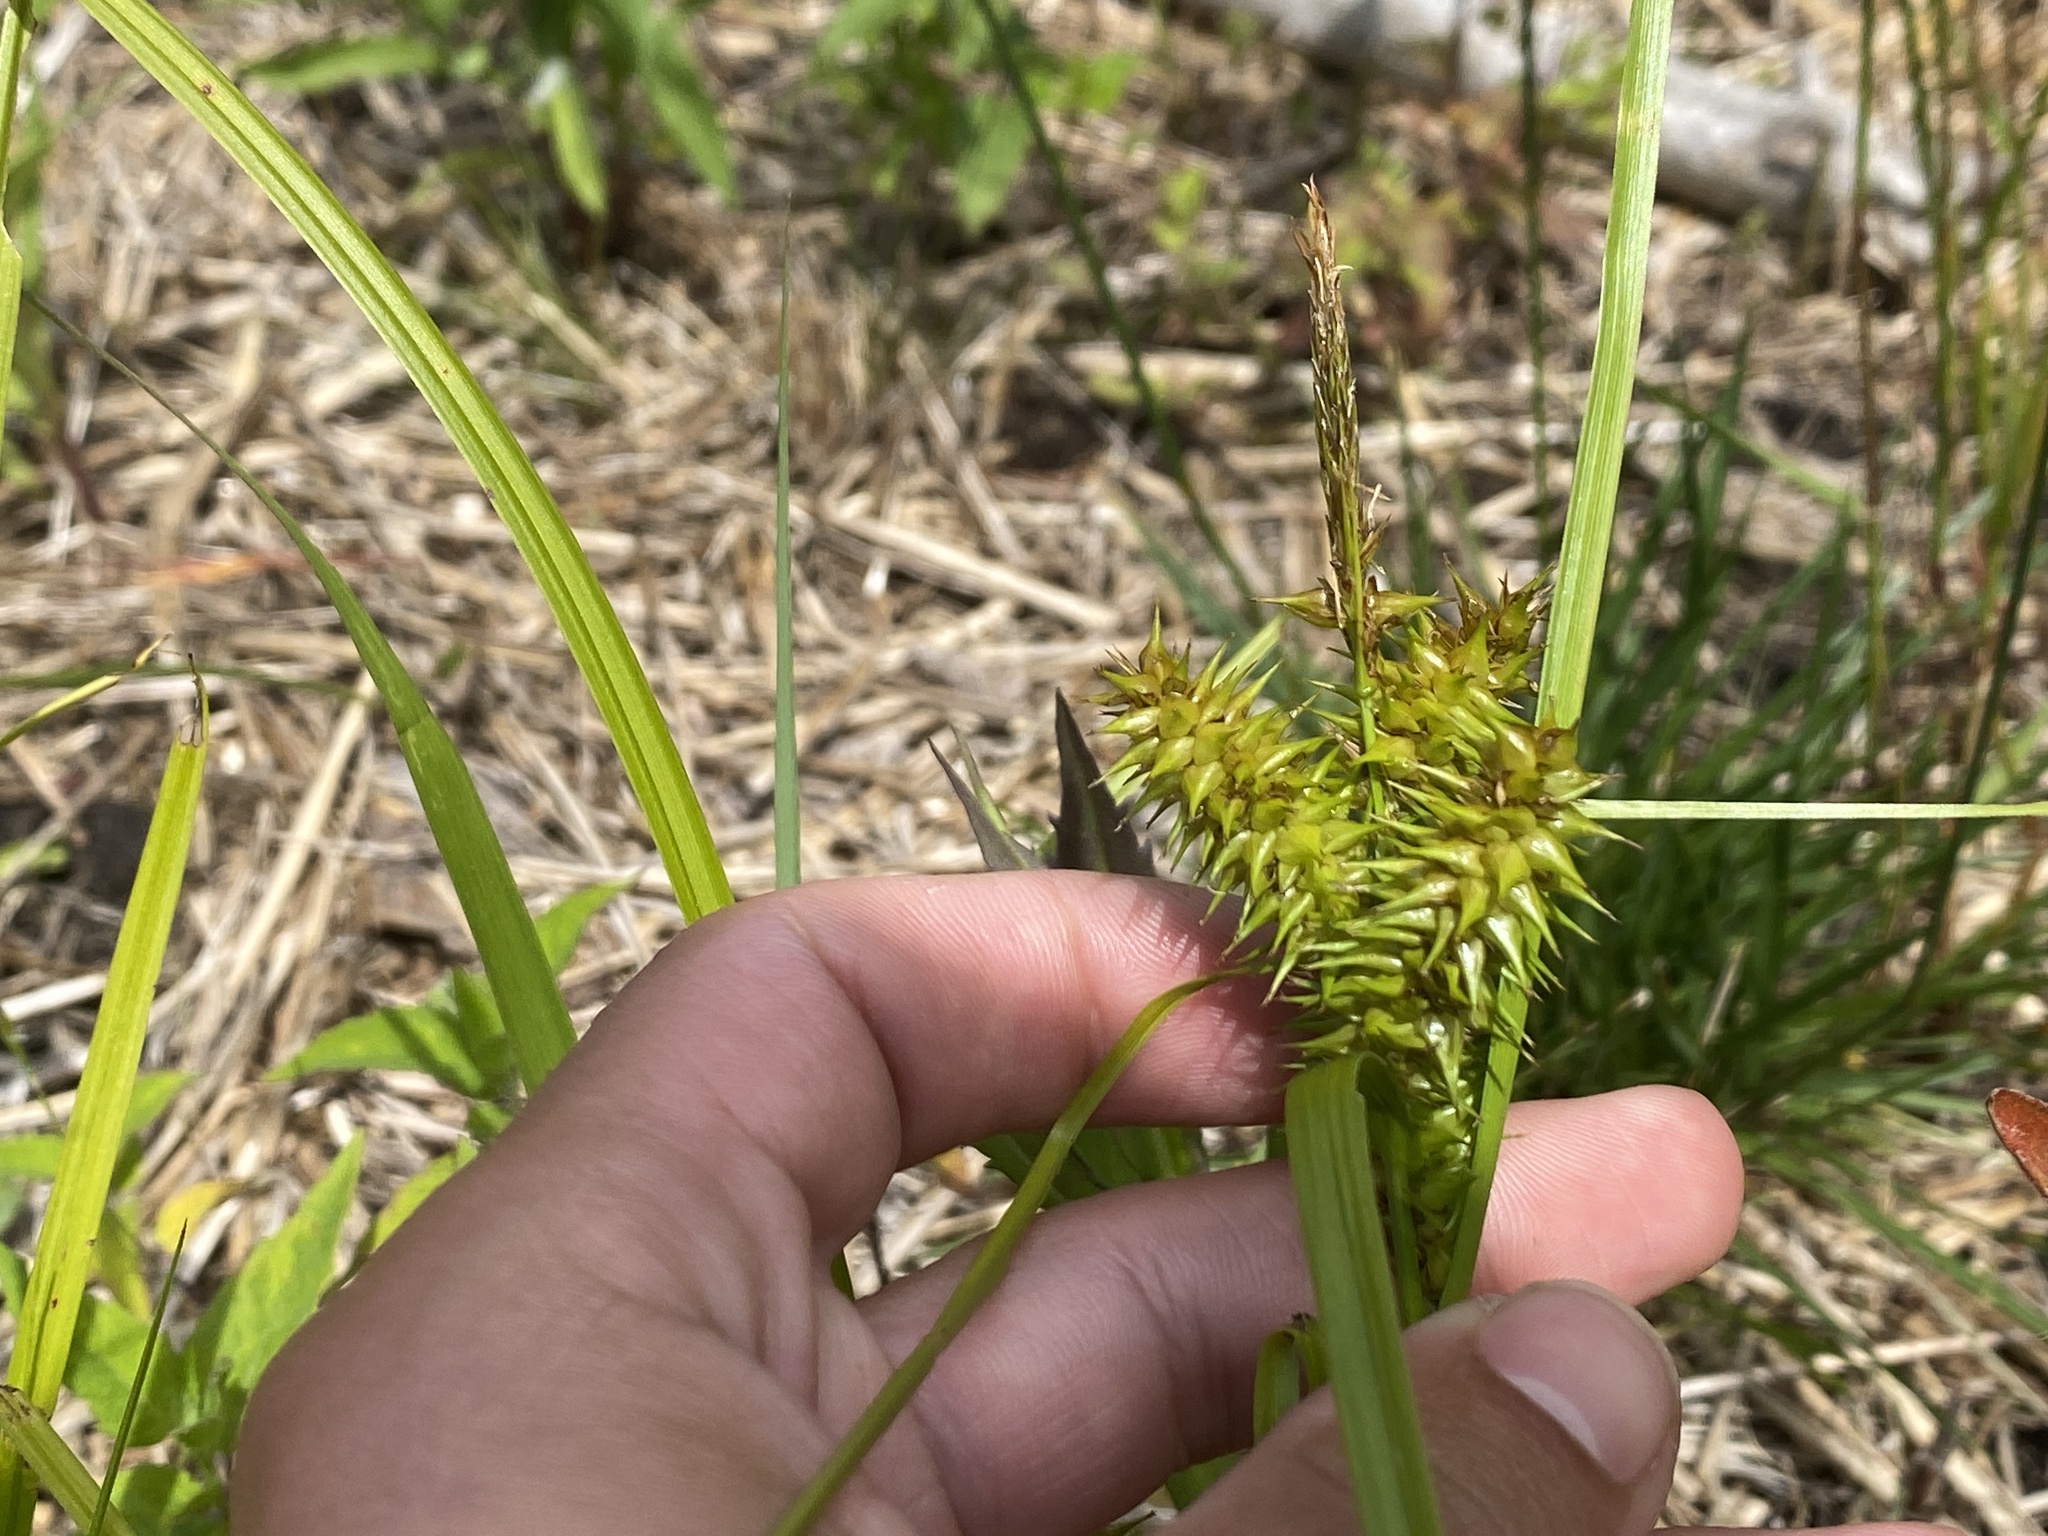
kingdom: Plantae
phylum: Tracheophyta
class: Liliopsida
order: Poales
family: Cyperaceae
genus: Carex
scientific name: Carex retrorsa
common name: Knot-sheath sedge
